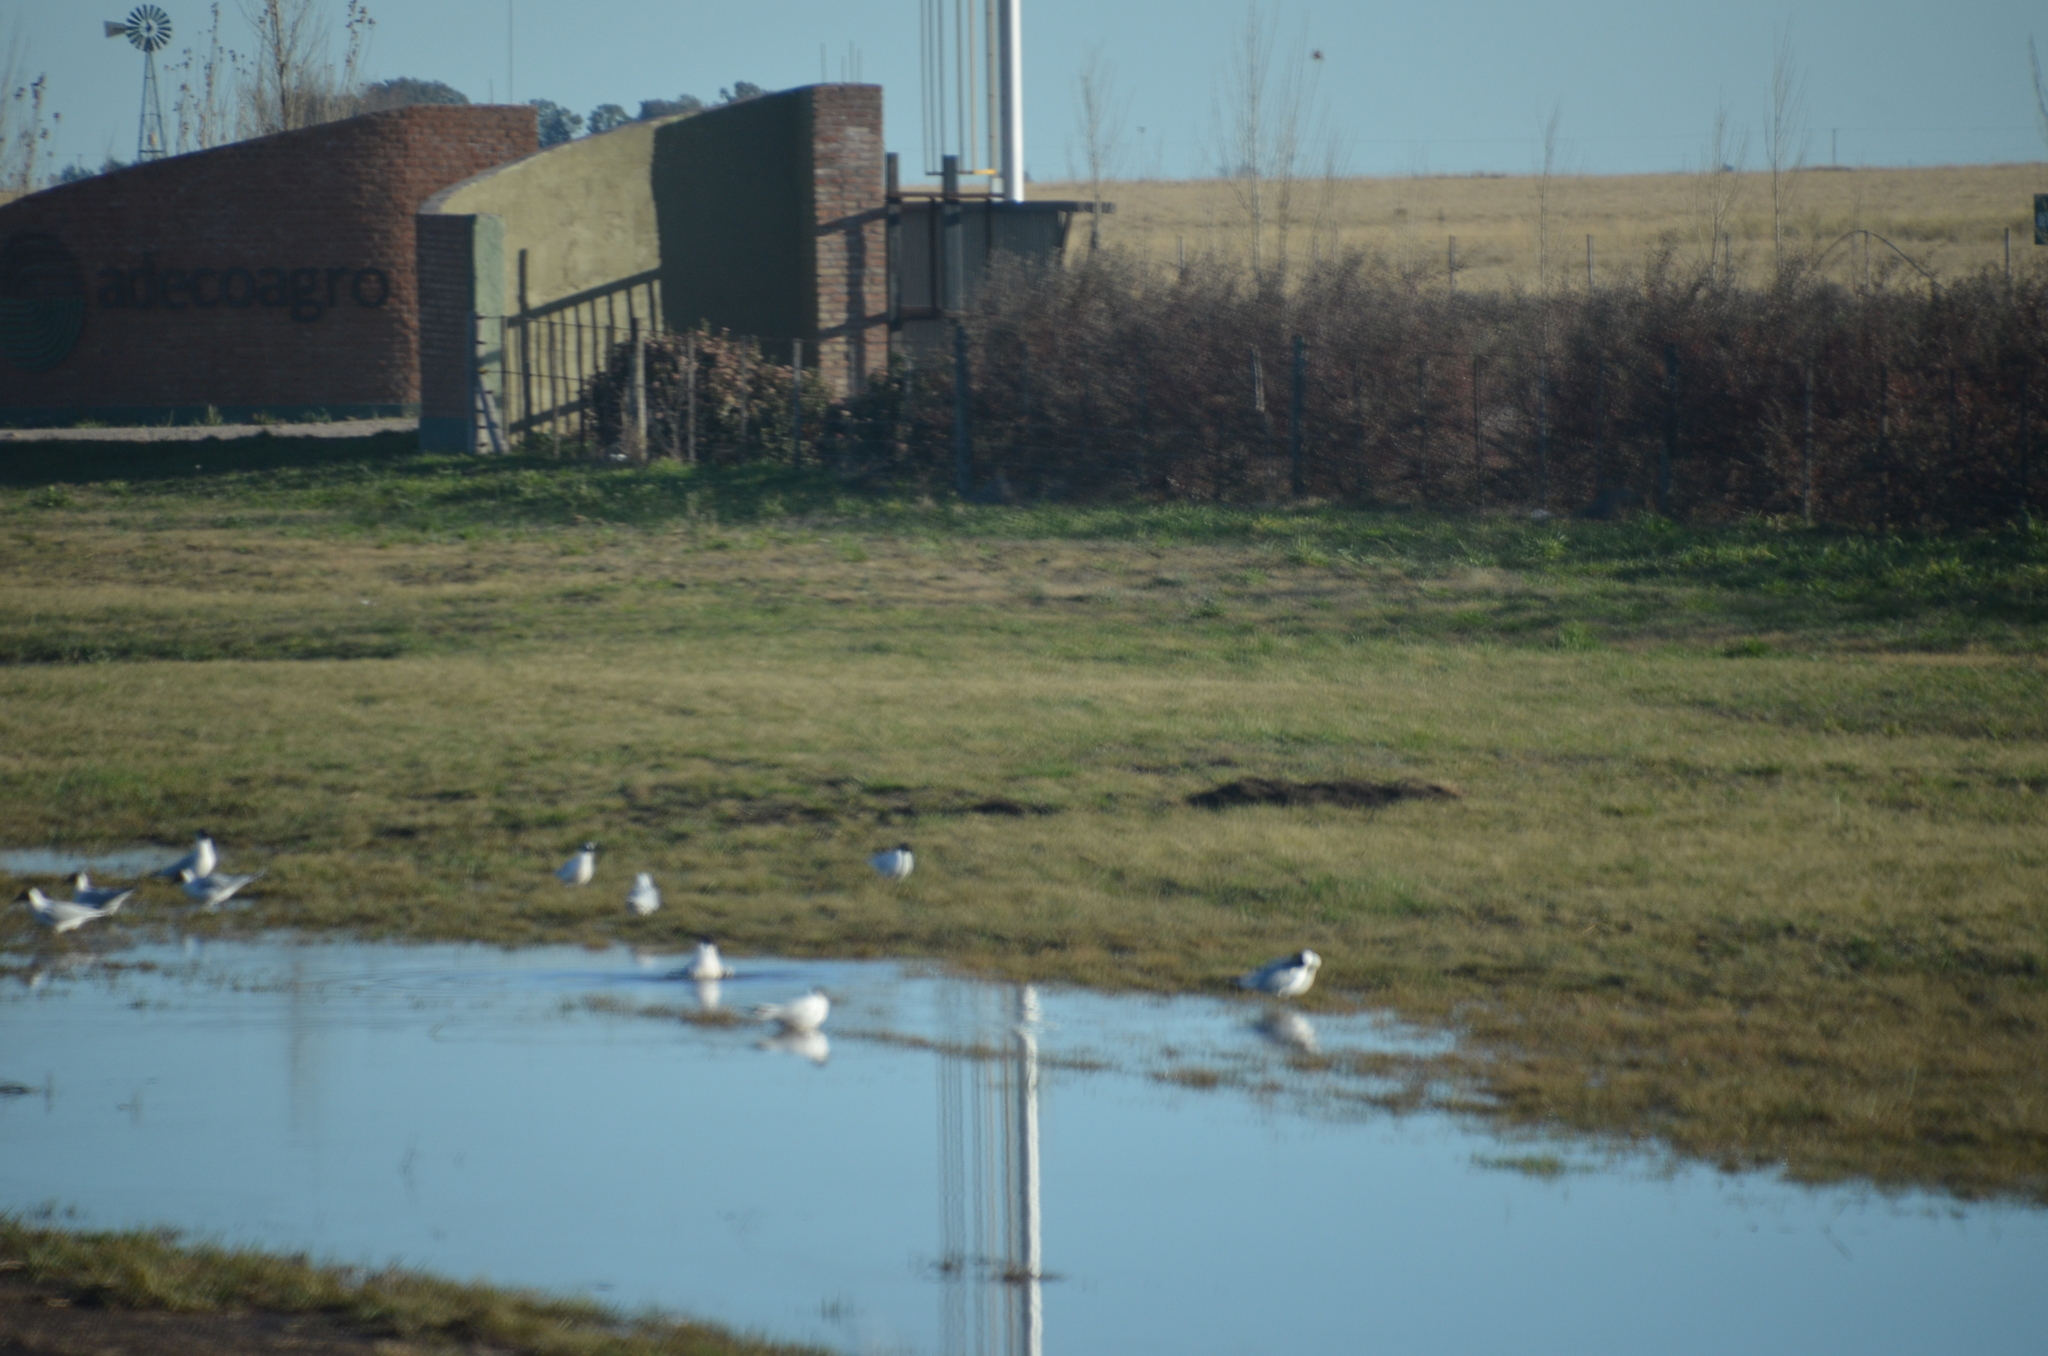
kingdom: Animalia
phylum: Chordata
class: Aves
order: Charadriiformes
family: Laridae
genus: Chroicocephalus
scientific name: Chroicocephalus maculipennis
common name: Brown-hooded gull
